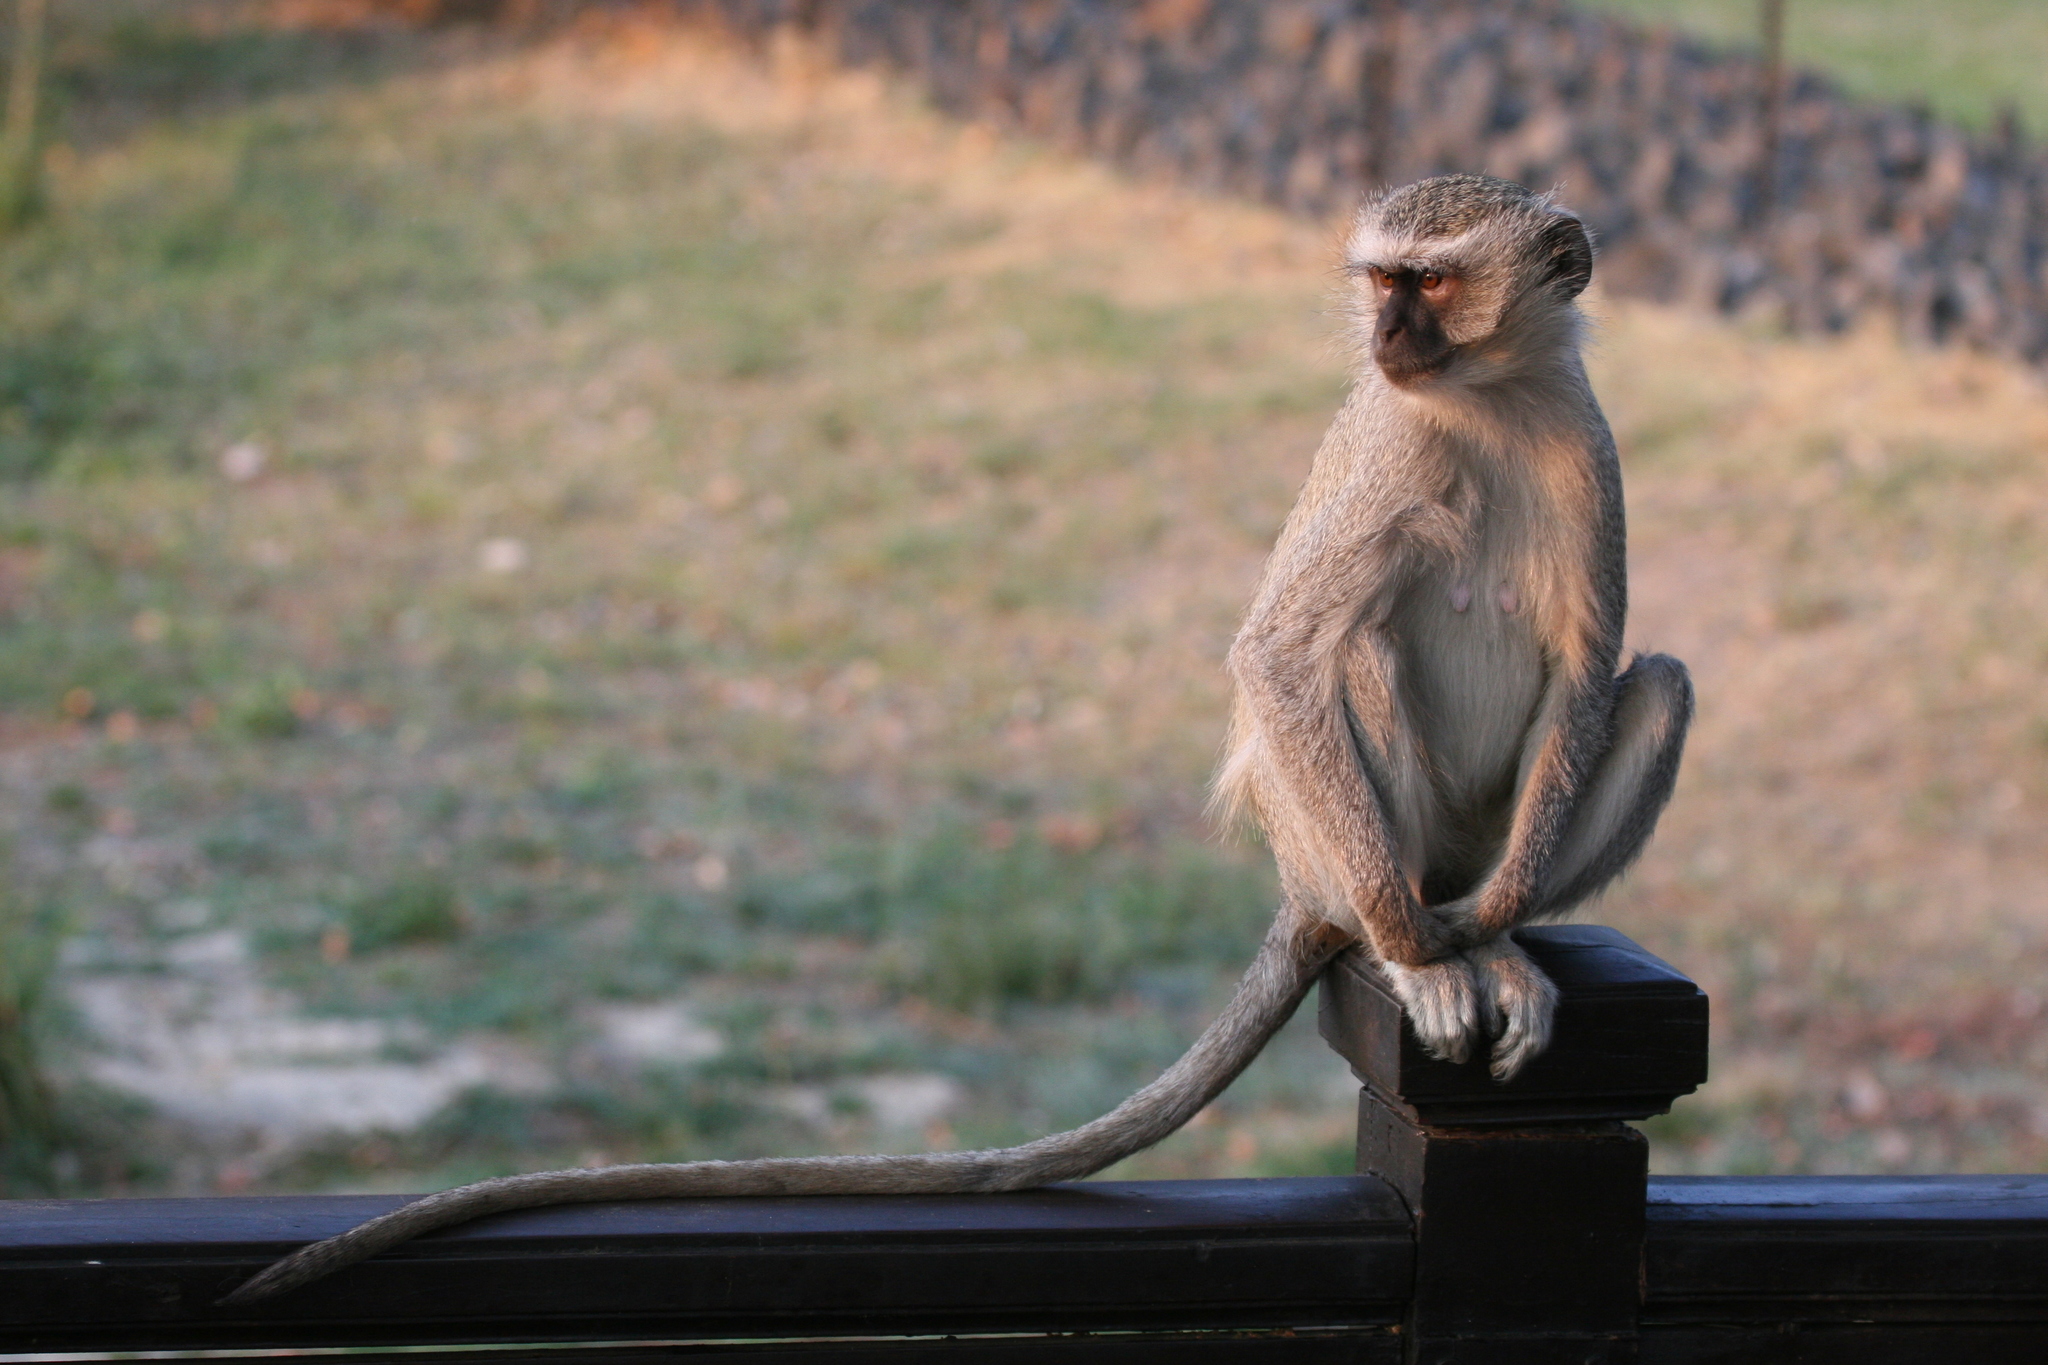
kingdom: Animalia
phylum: Chordata
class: Mammalia
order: Primates
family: Cercopithecidae
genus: Chlorocebus
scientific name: Chlorocebus pygerythrus
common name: Vervet monkey
